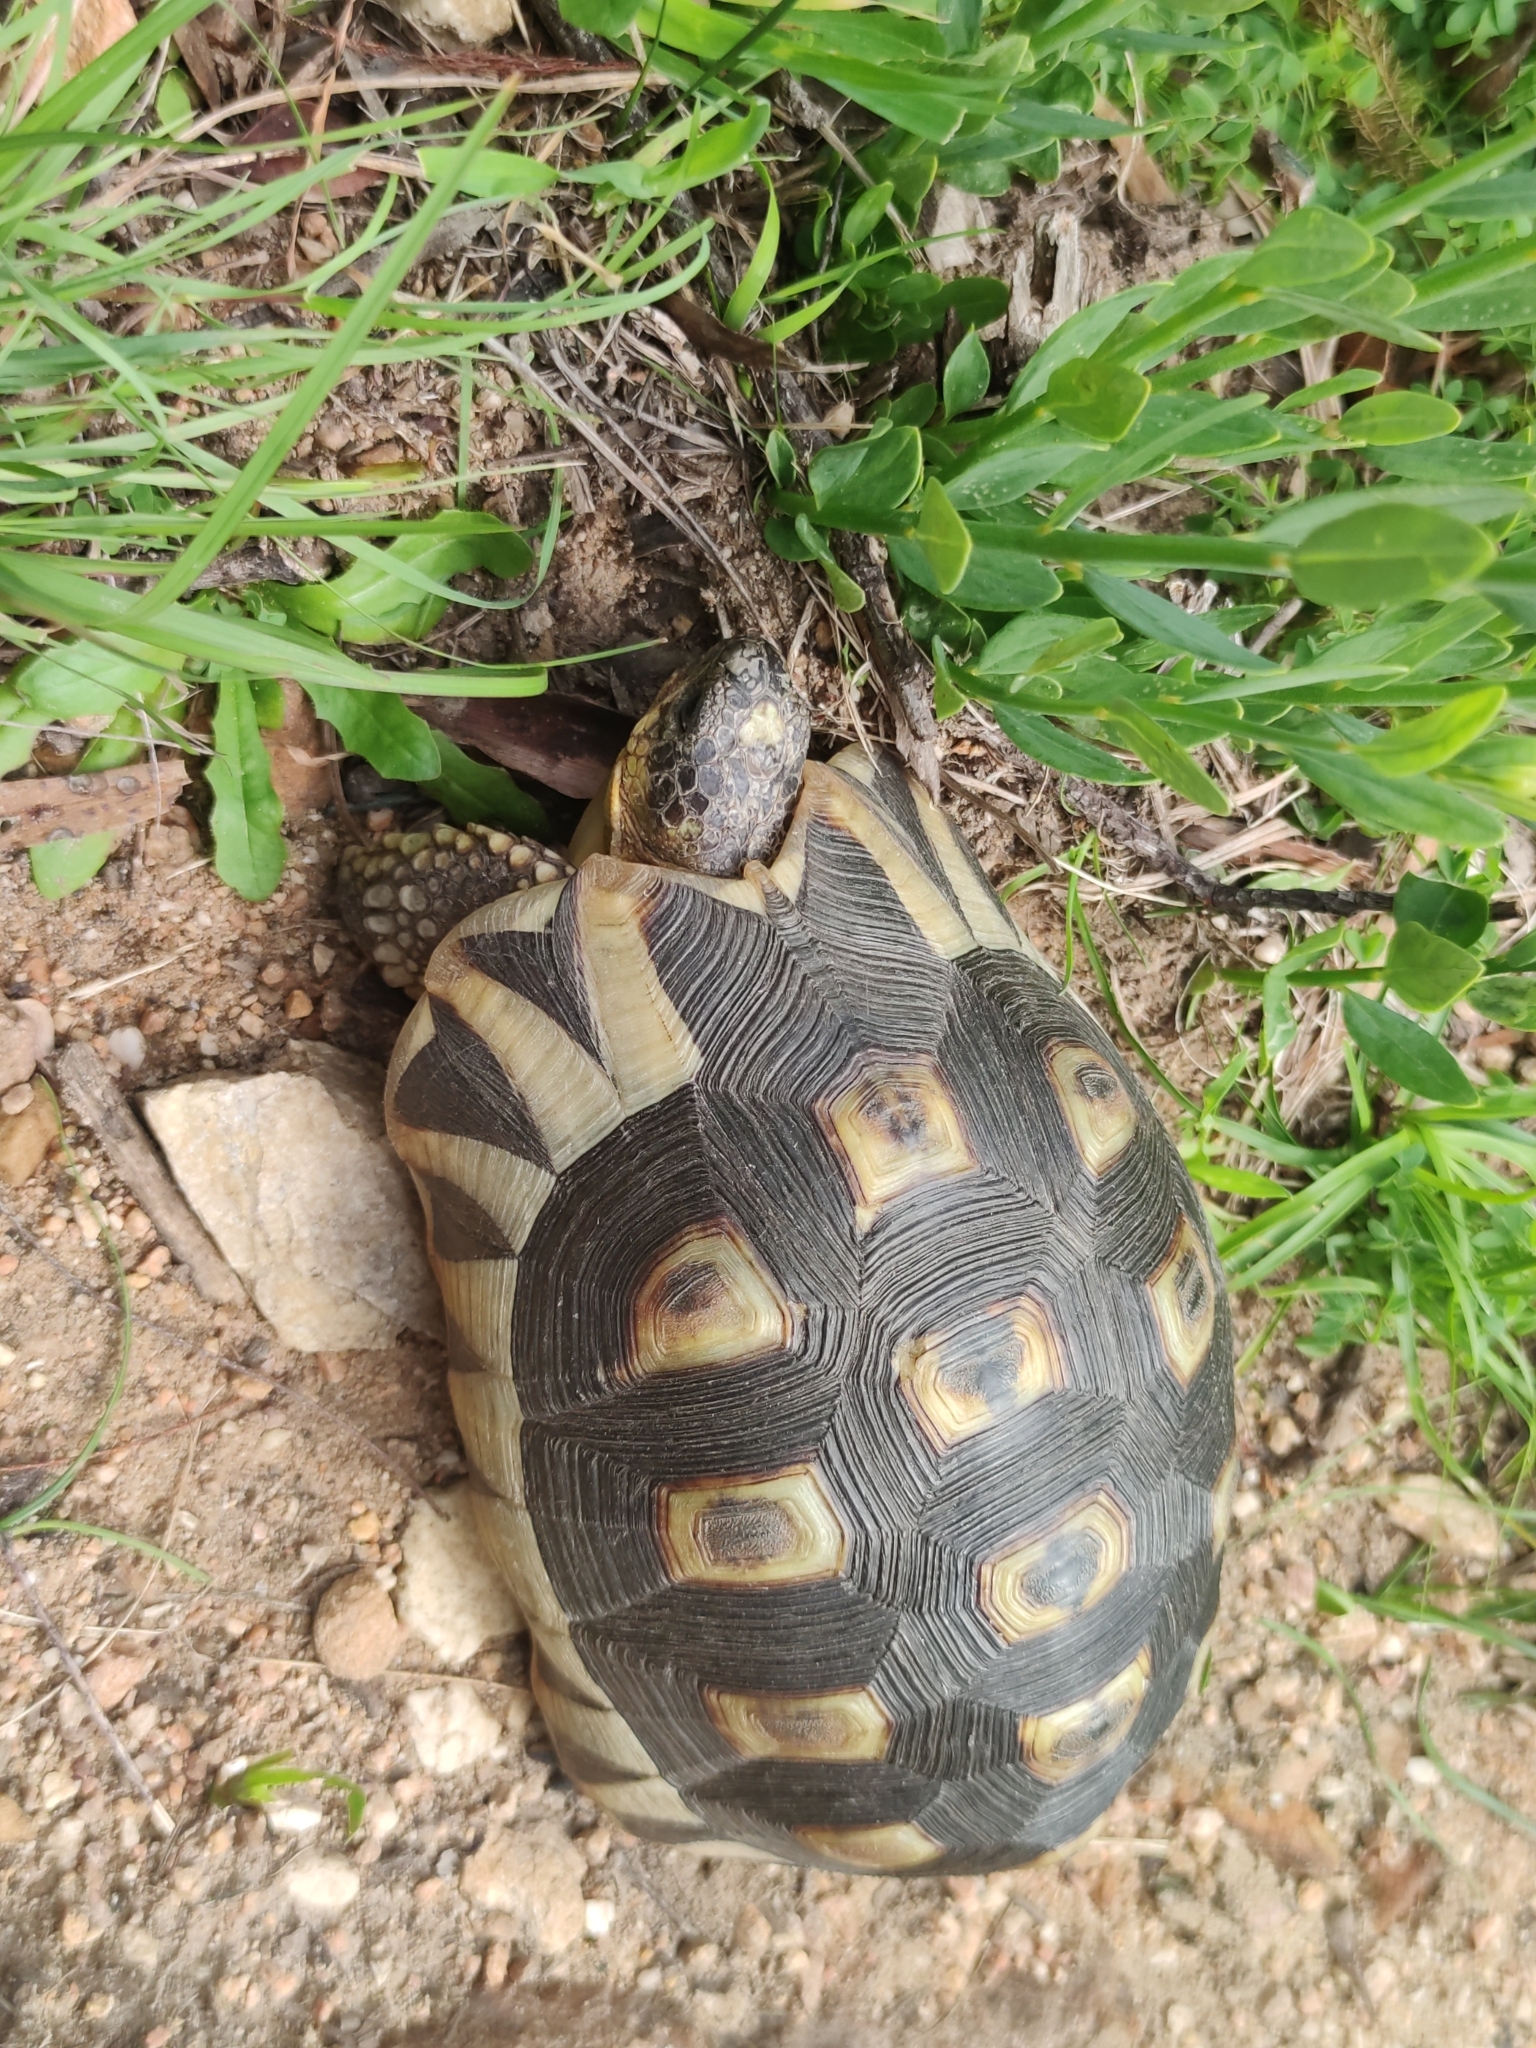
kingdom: Animalia
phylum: Chordata
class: Testudines
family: Testudinidae
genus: Chersina
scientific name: Chersina angulata
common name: South african bowsprit tortoise
